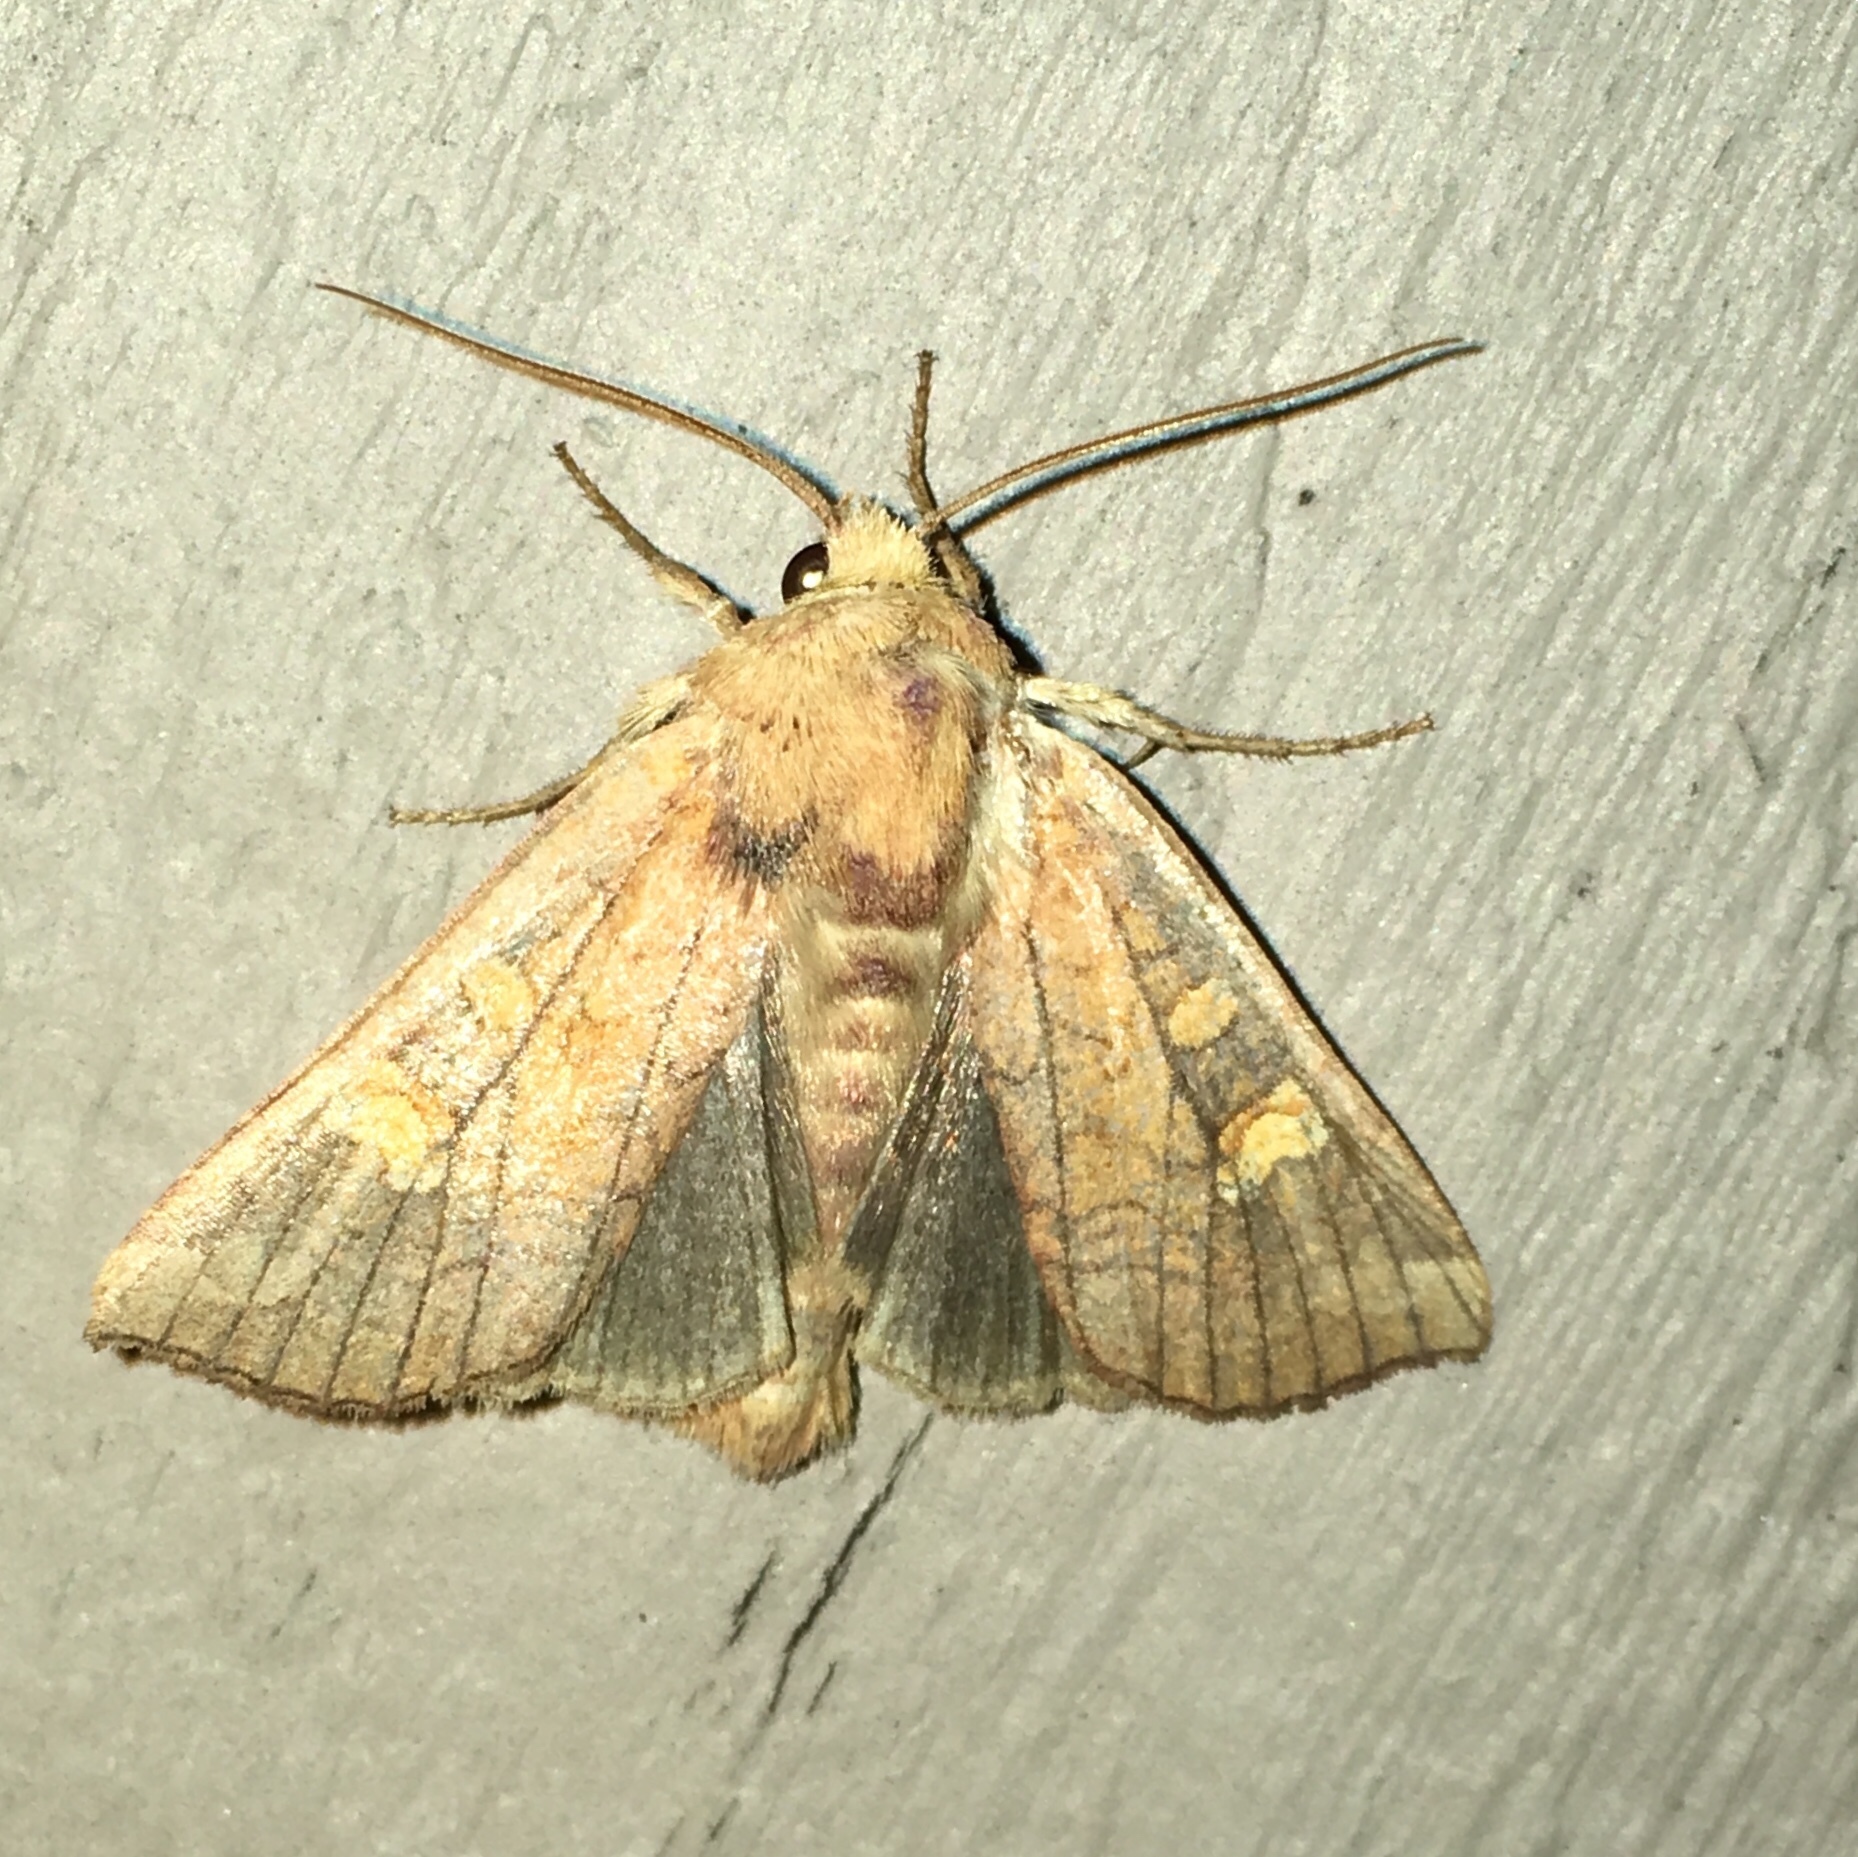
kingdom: Animalia
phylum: Arthropoda
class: Insecta
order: Lepidoptera
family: Noctuidae
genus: Amphipoea
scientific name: Amphipoea americana
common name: American ear moth
